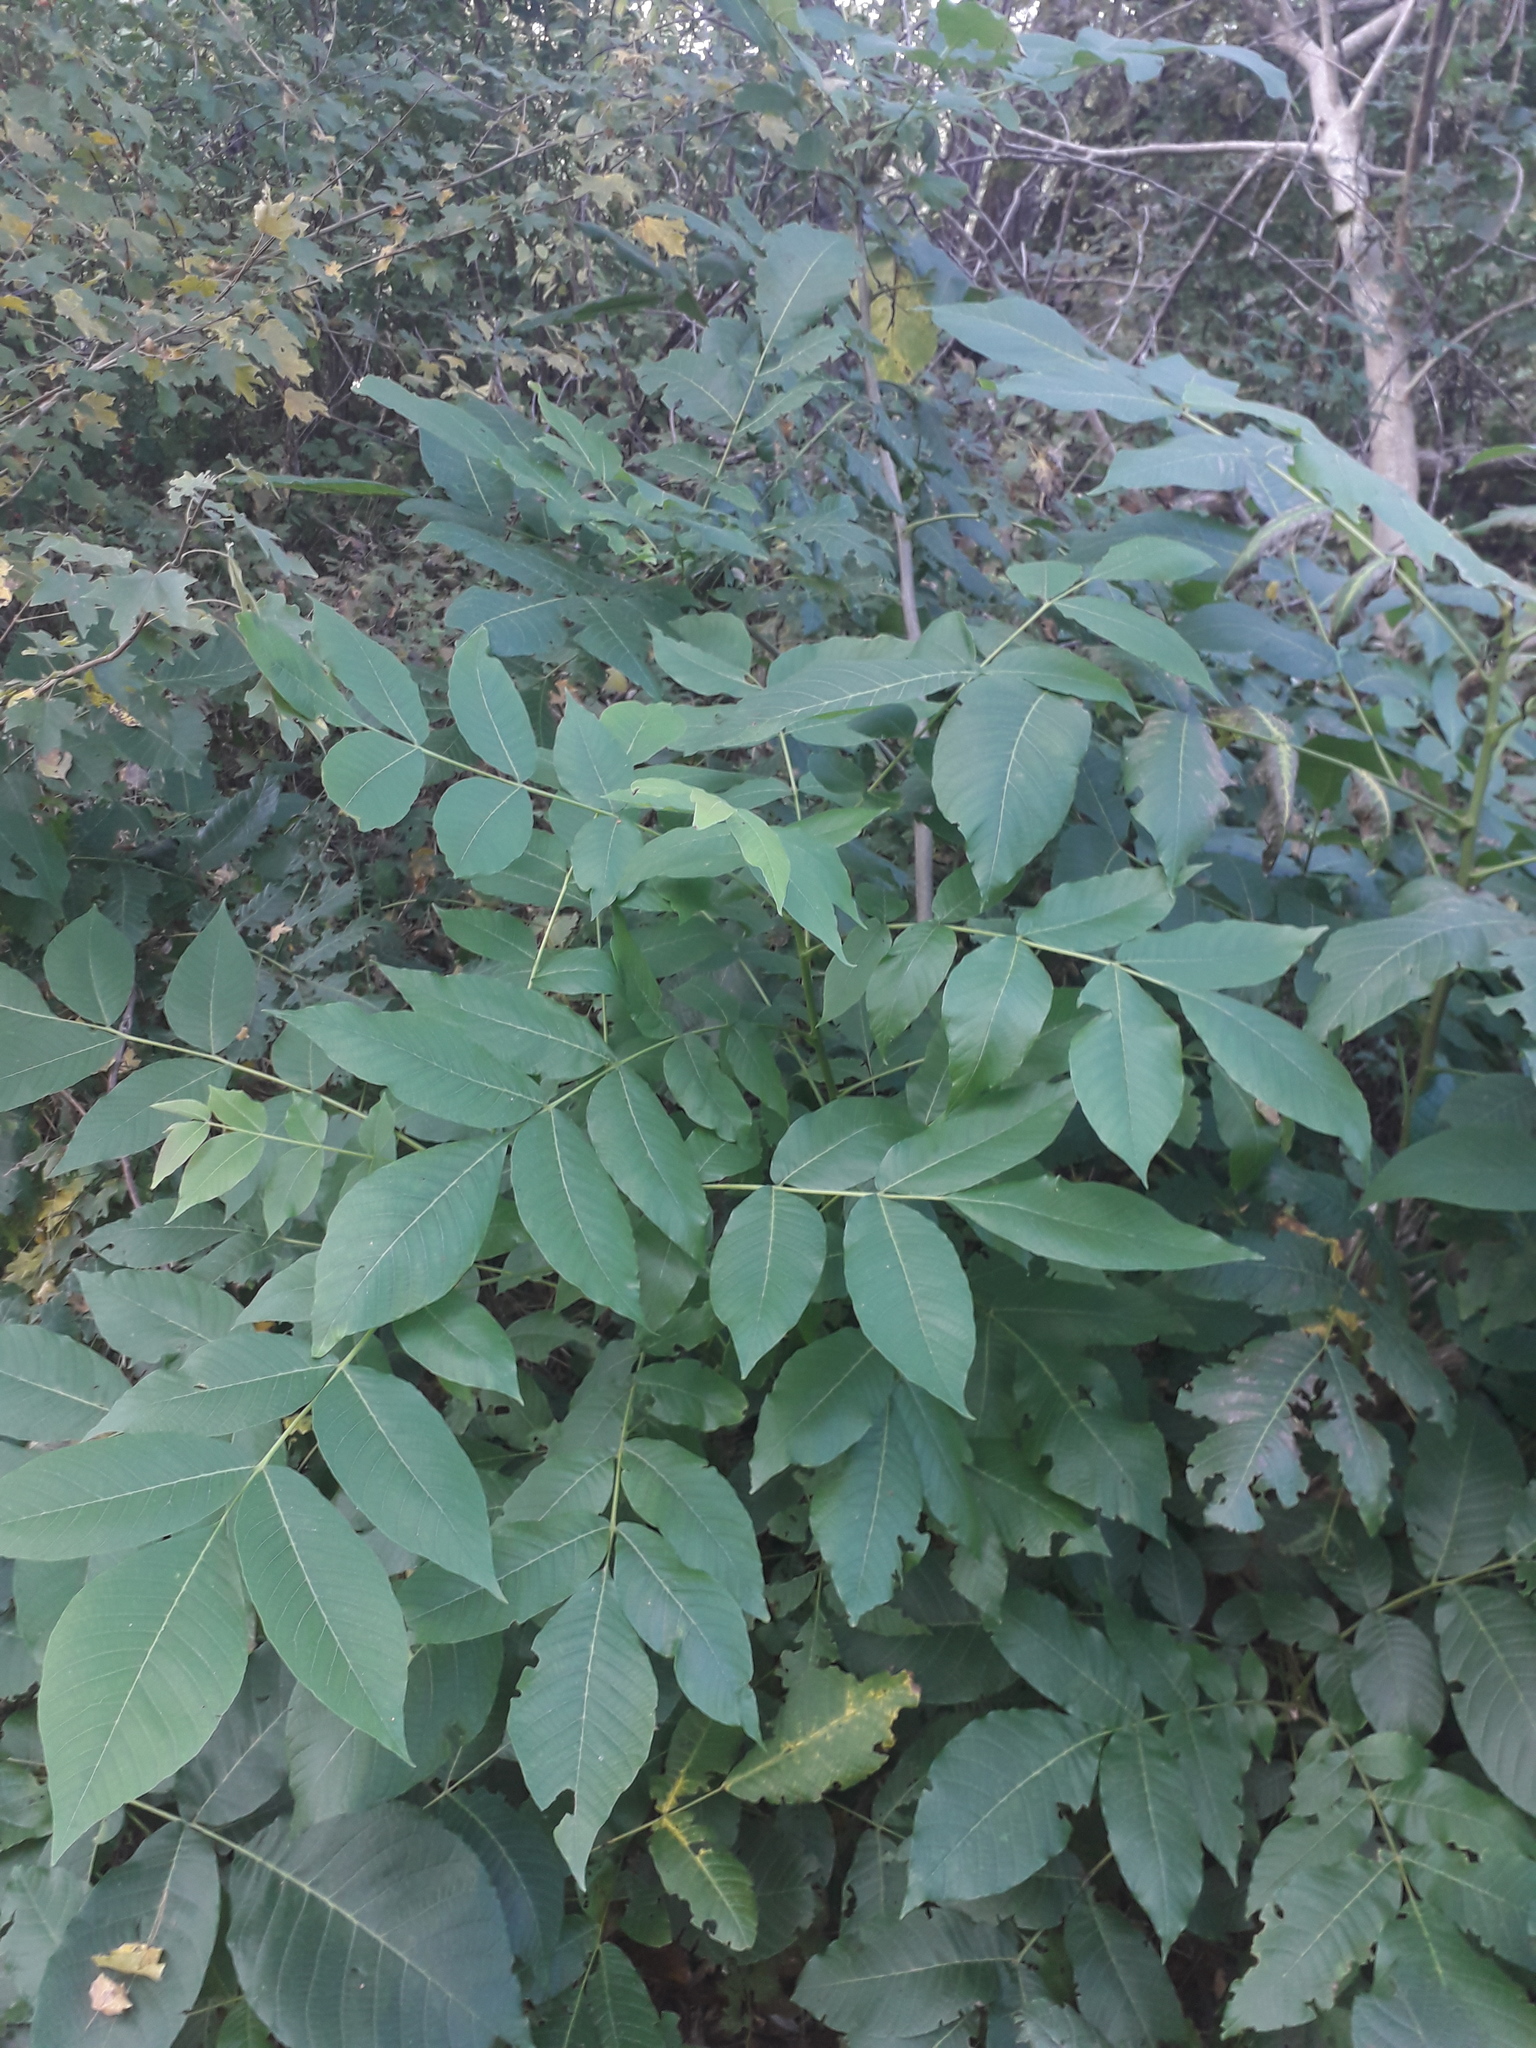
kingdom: Plantae
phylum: Tracheophyta
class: Magnoliopsida
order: Lamiales
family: Oleaceae
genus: Fraxinus
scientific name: Fraxinus excelsior
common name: European ash
